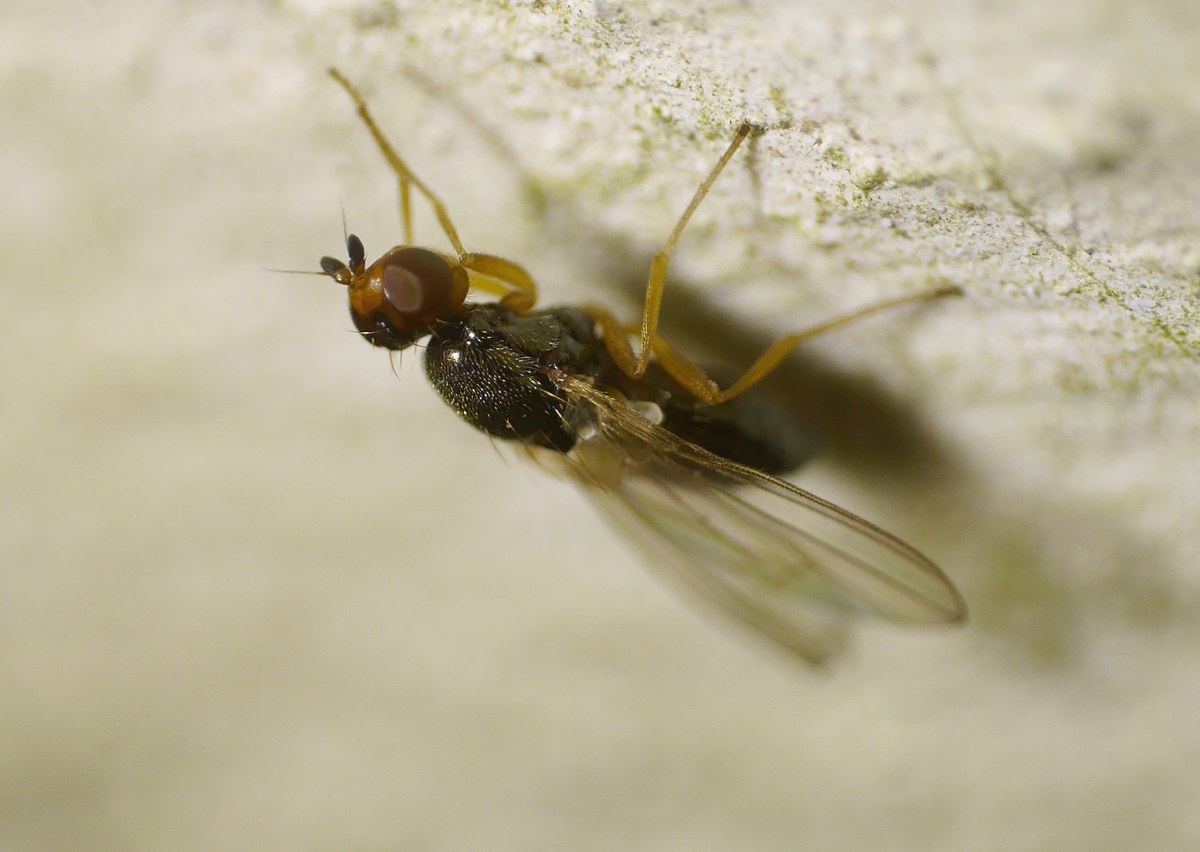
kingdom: Animalia
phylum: Arthropoda
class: Insecta
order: Diptera
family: Psilidae
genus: Psila
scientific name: Psila nigricornis
